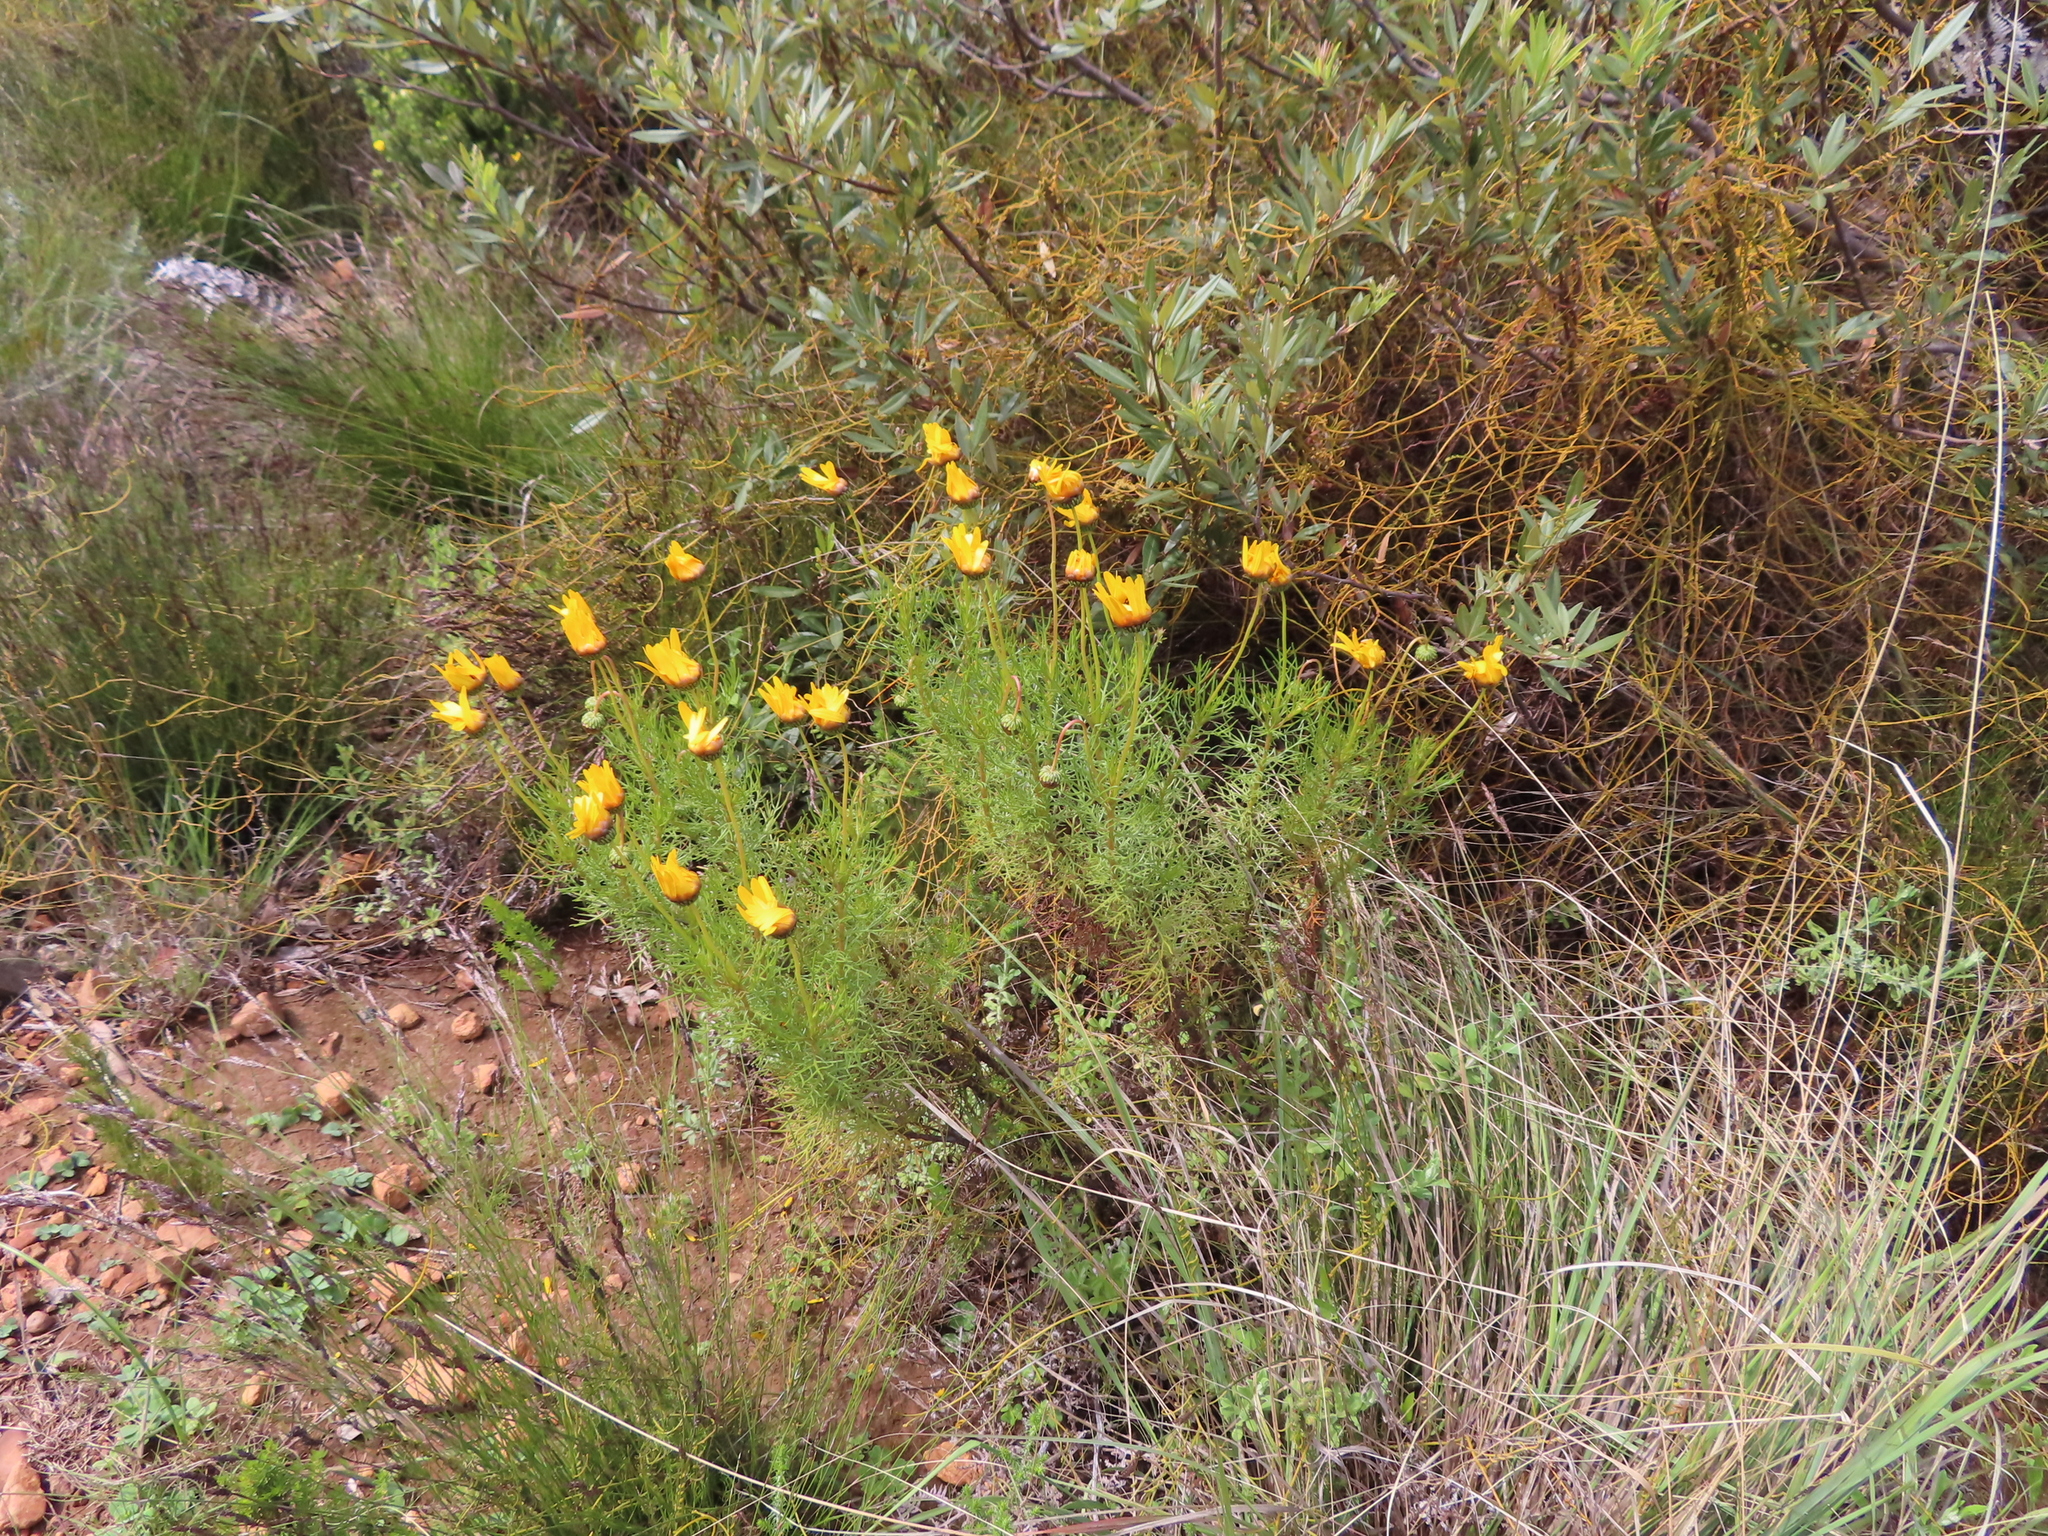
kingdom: Plantae
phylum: Tracheophyta
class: Magnoliopsida
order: Asterales
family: Asteraceae
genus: Ursinia
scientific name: Ursinia paleacea
